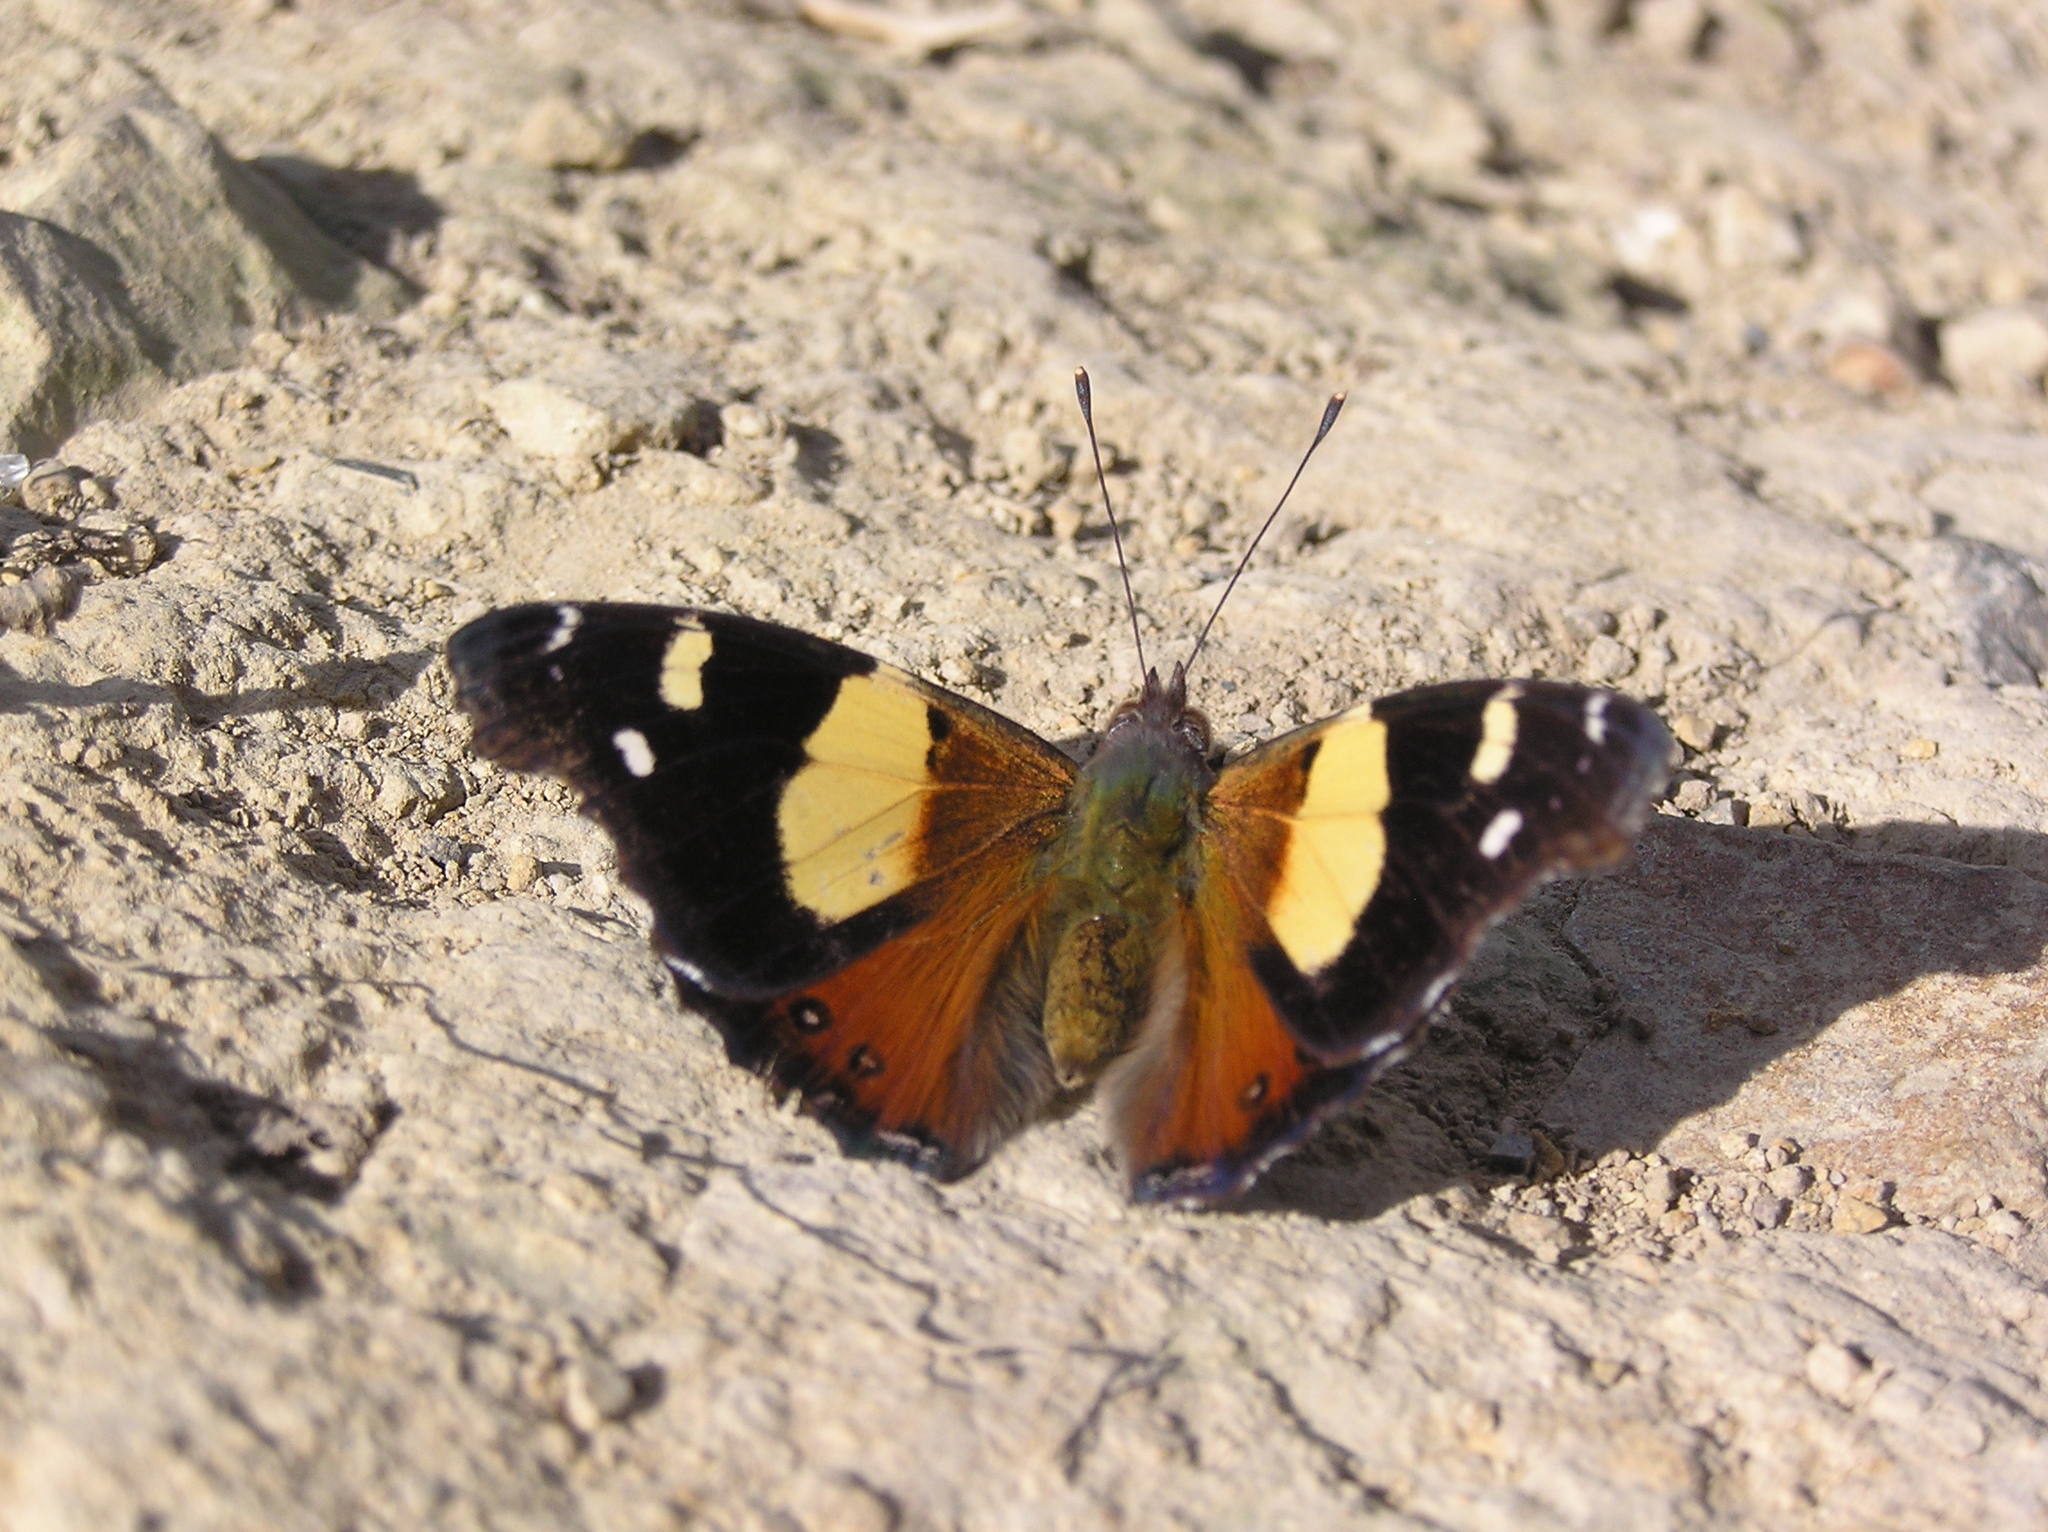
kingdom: Animalia
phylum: Arthropoda
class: Insecta
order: Lepidoptera
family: Nymphalidae
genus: Vanessa
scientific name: Vanessa itea
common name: Yellow admiral
